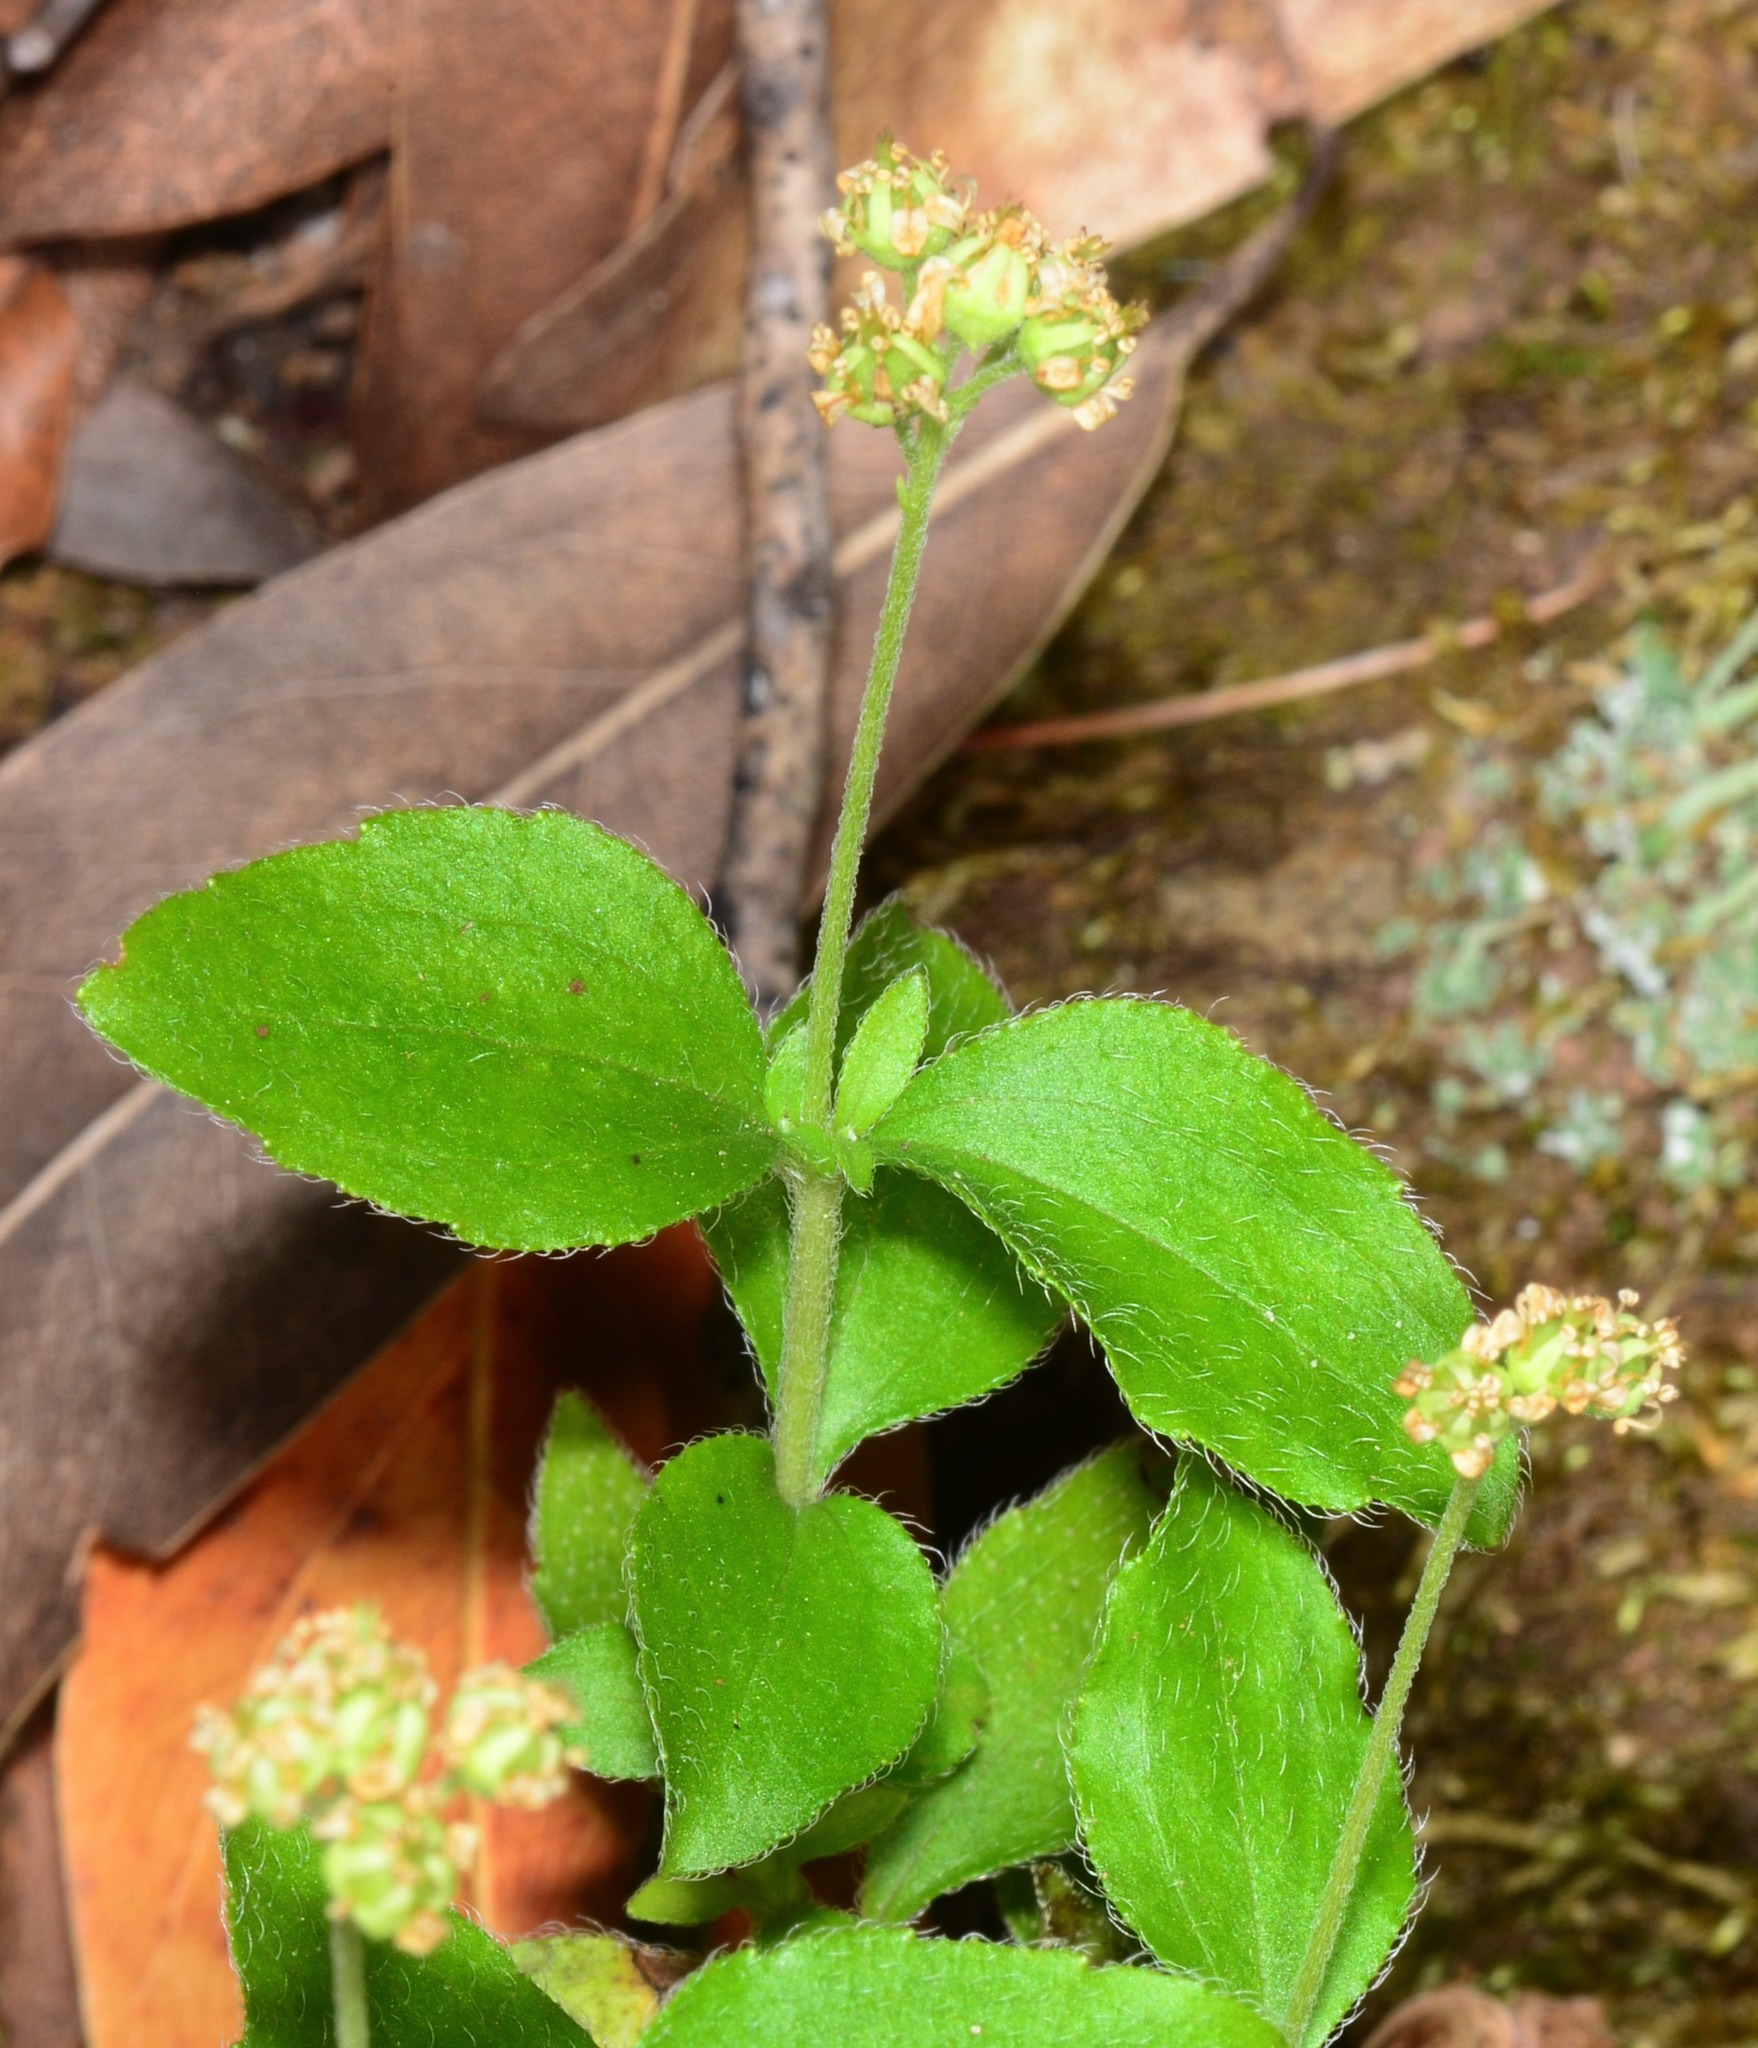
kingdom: Plantae
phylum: Tracheophyta
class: Magnoliopsida
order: Cornales
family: Hydrangeaceae
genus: Whipplea
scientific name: Whipplea modesta
